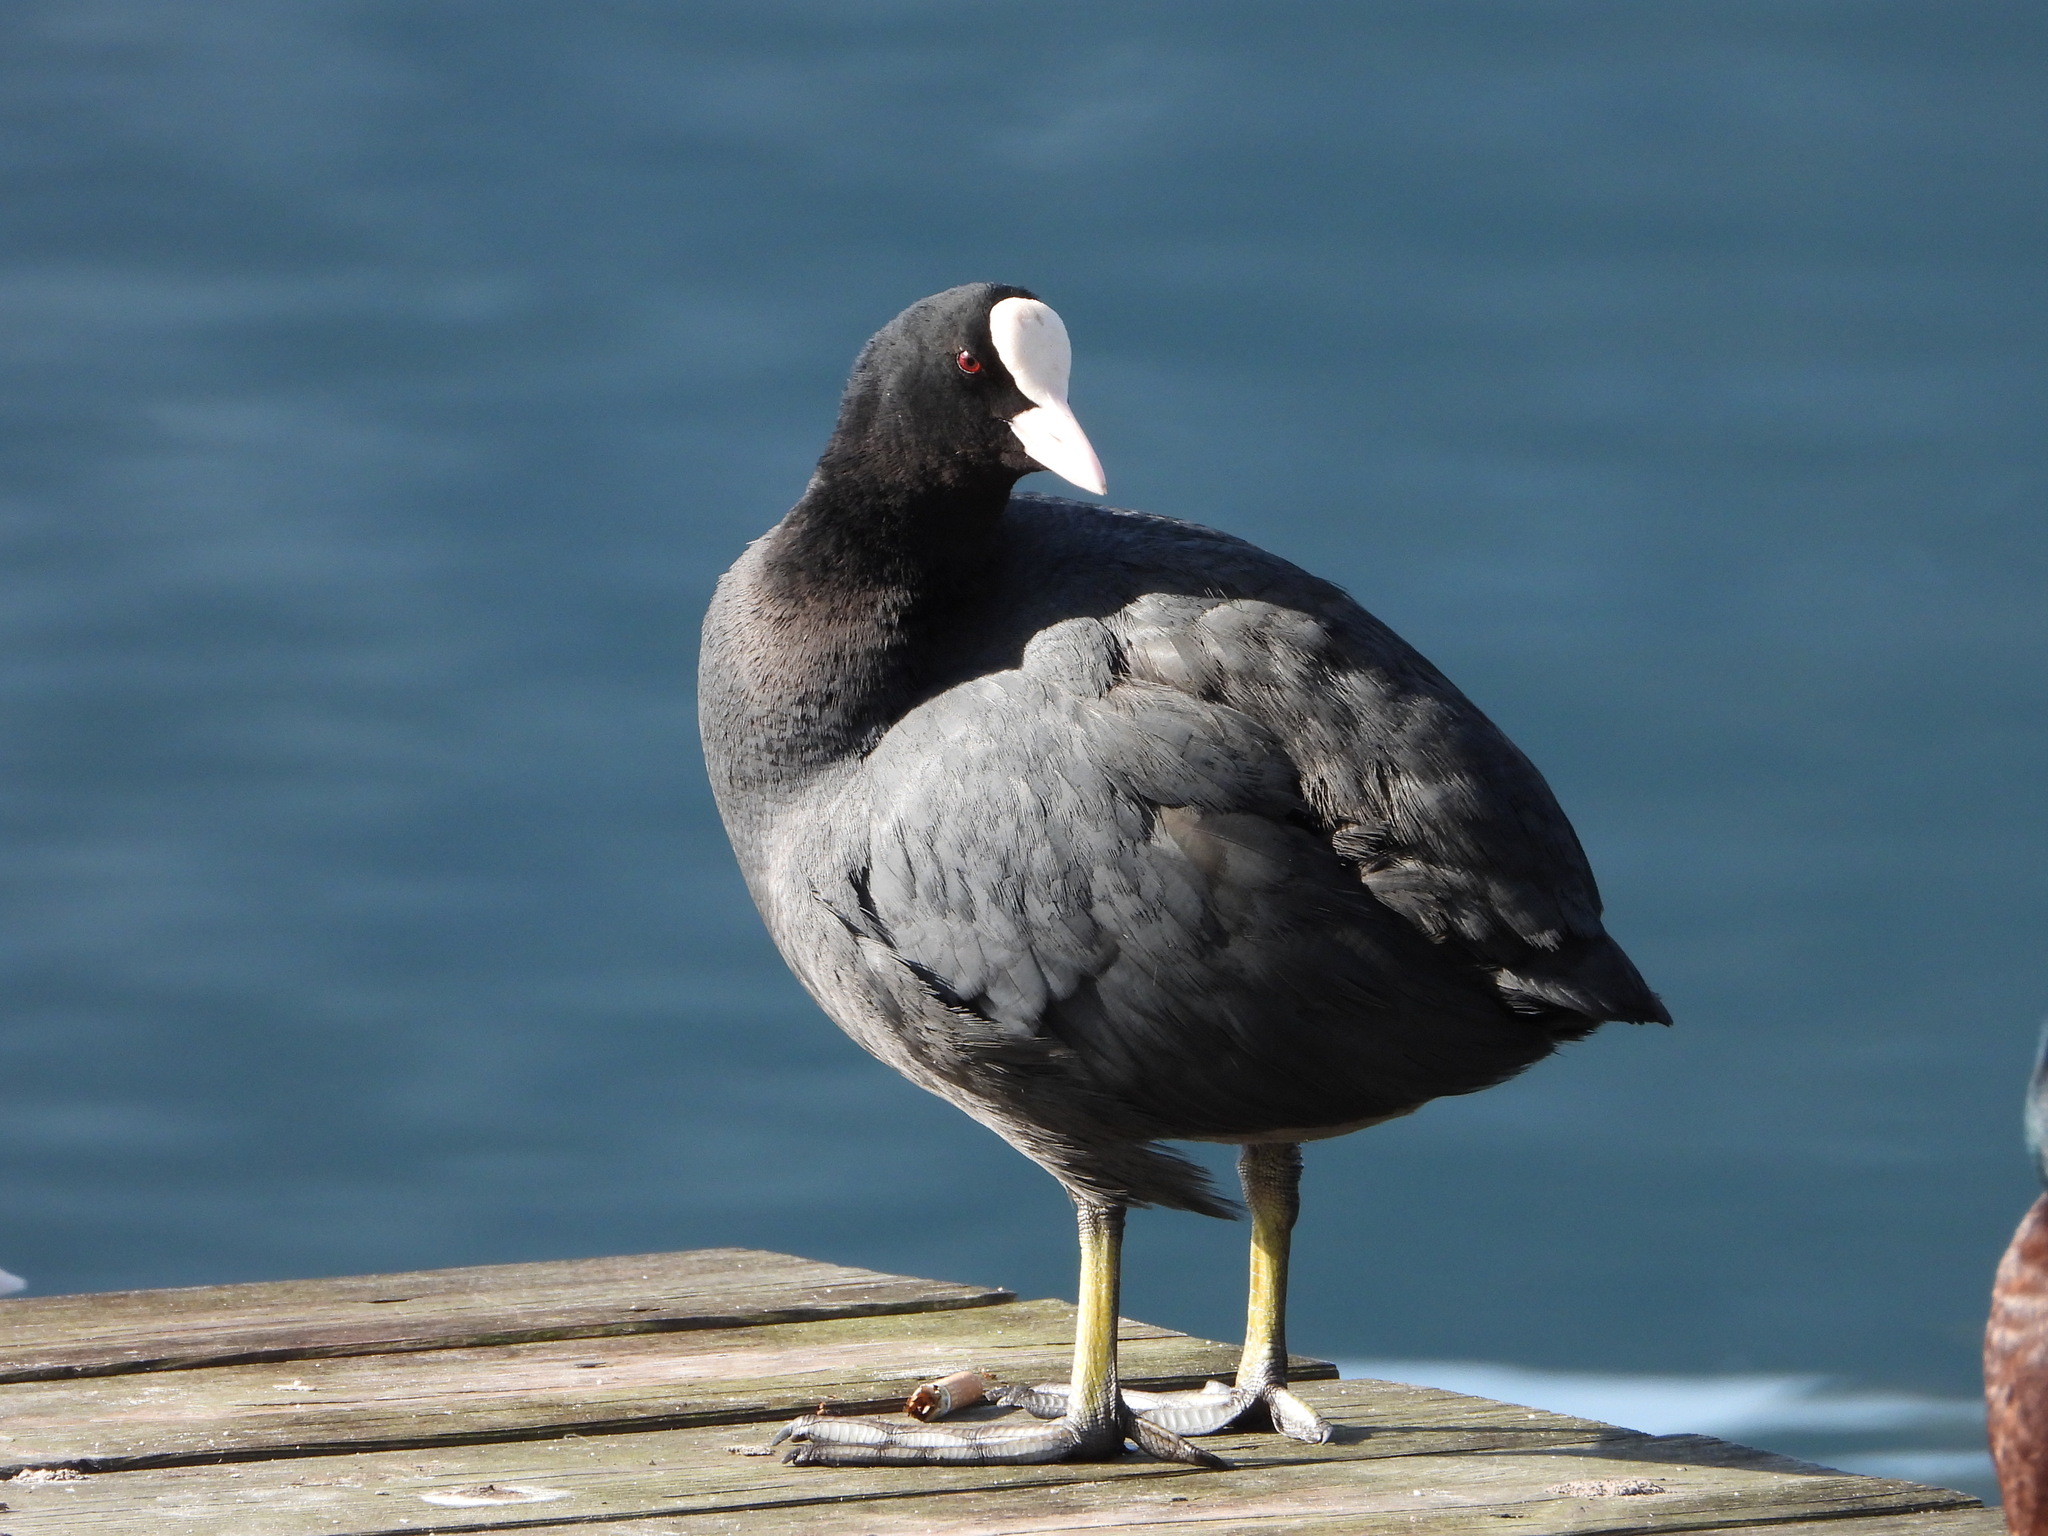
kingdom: Animalia
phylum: Chordata
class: Aves
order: Gruiformes
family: Rallidae
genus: Fulica
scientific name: Fulica atra
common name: Eurasian coot
